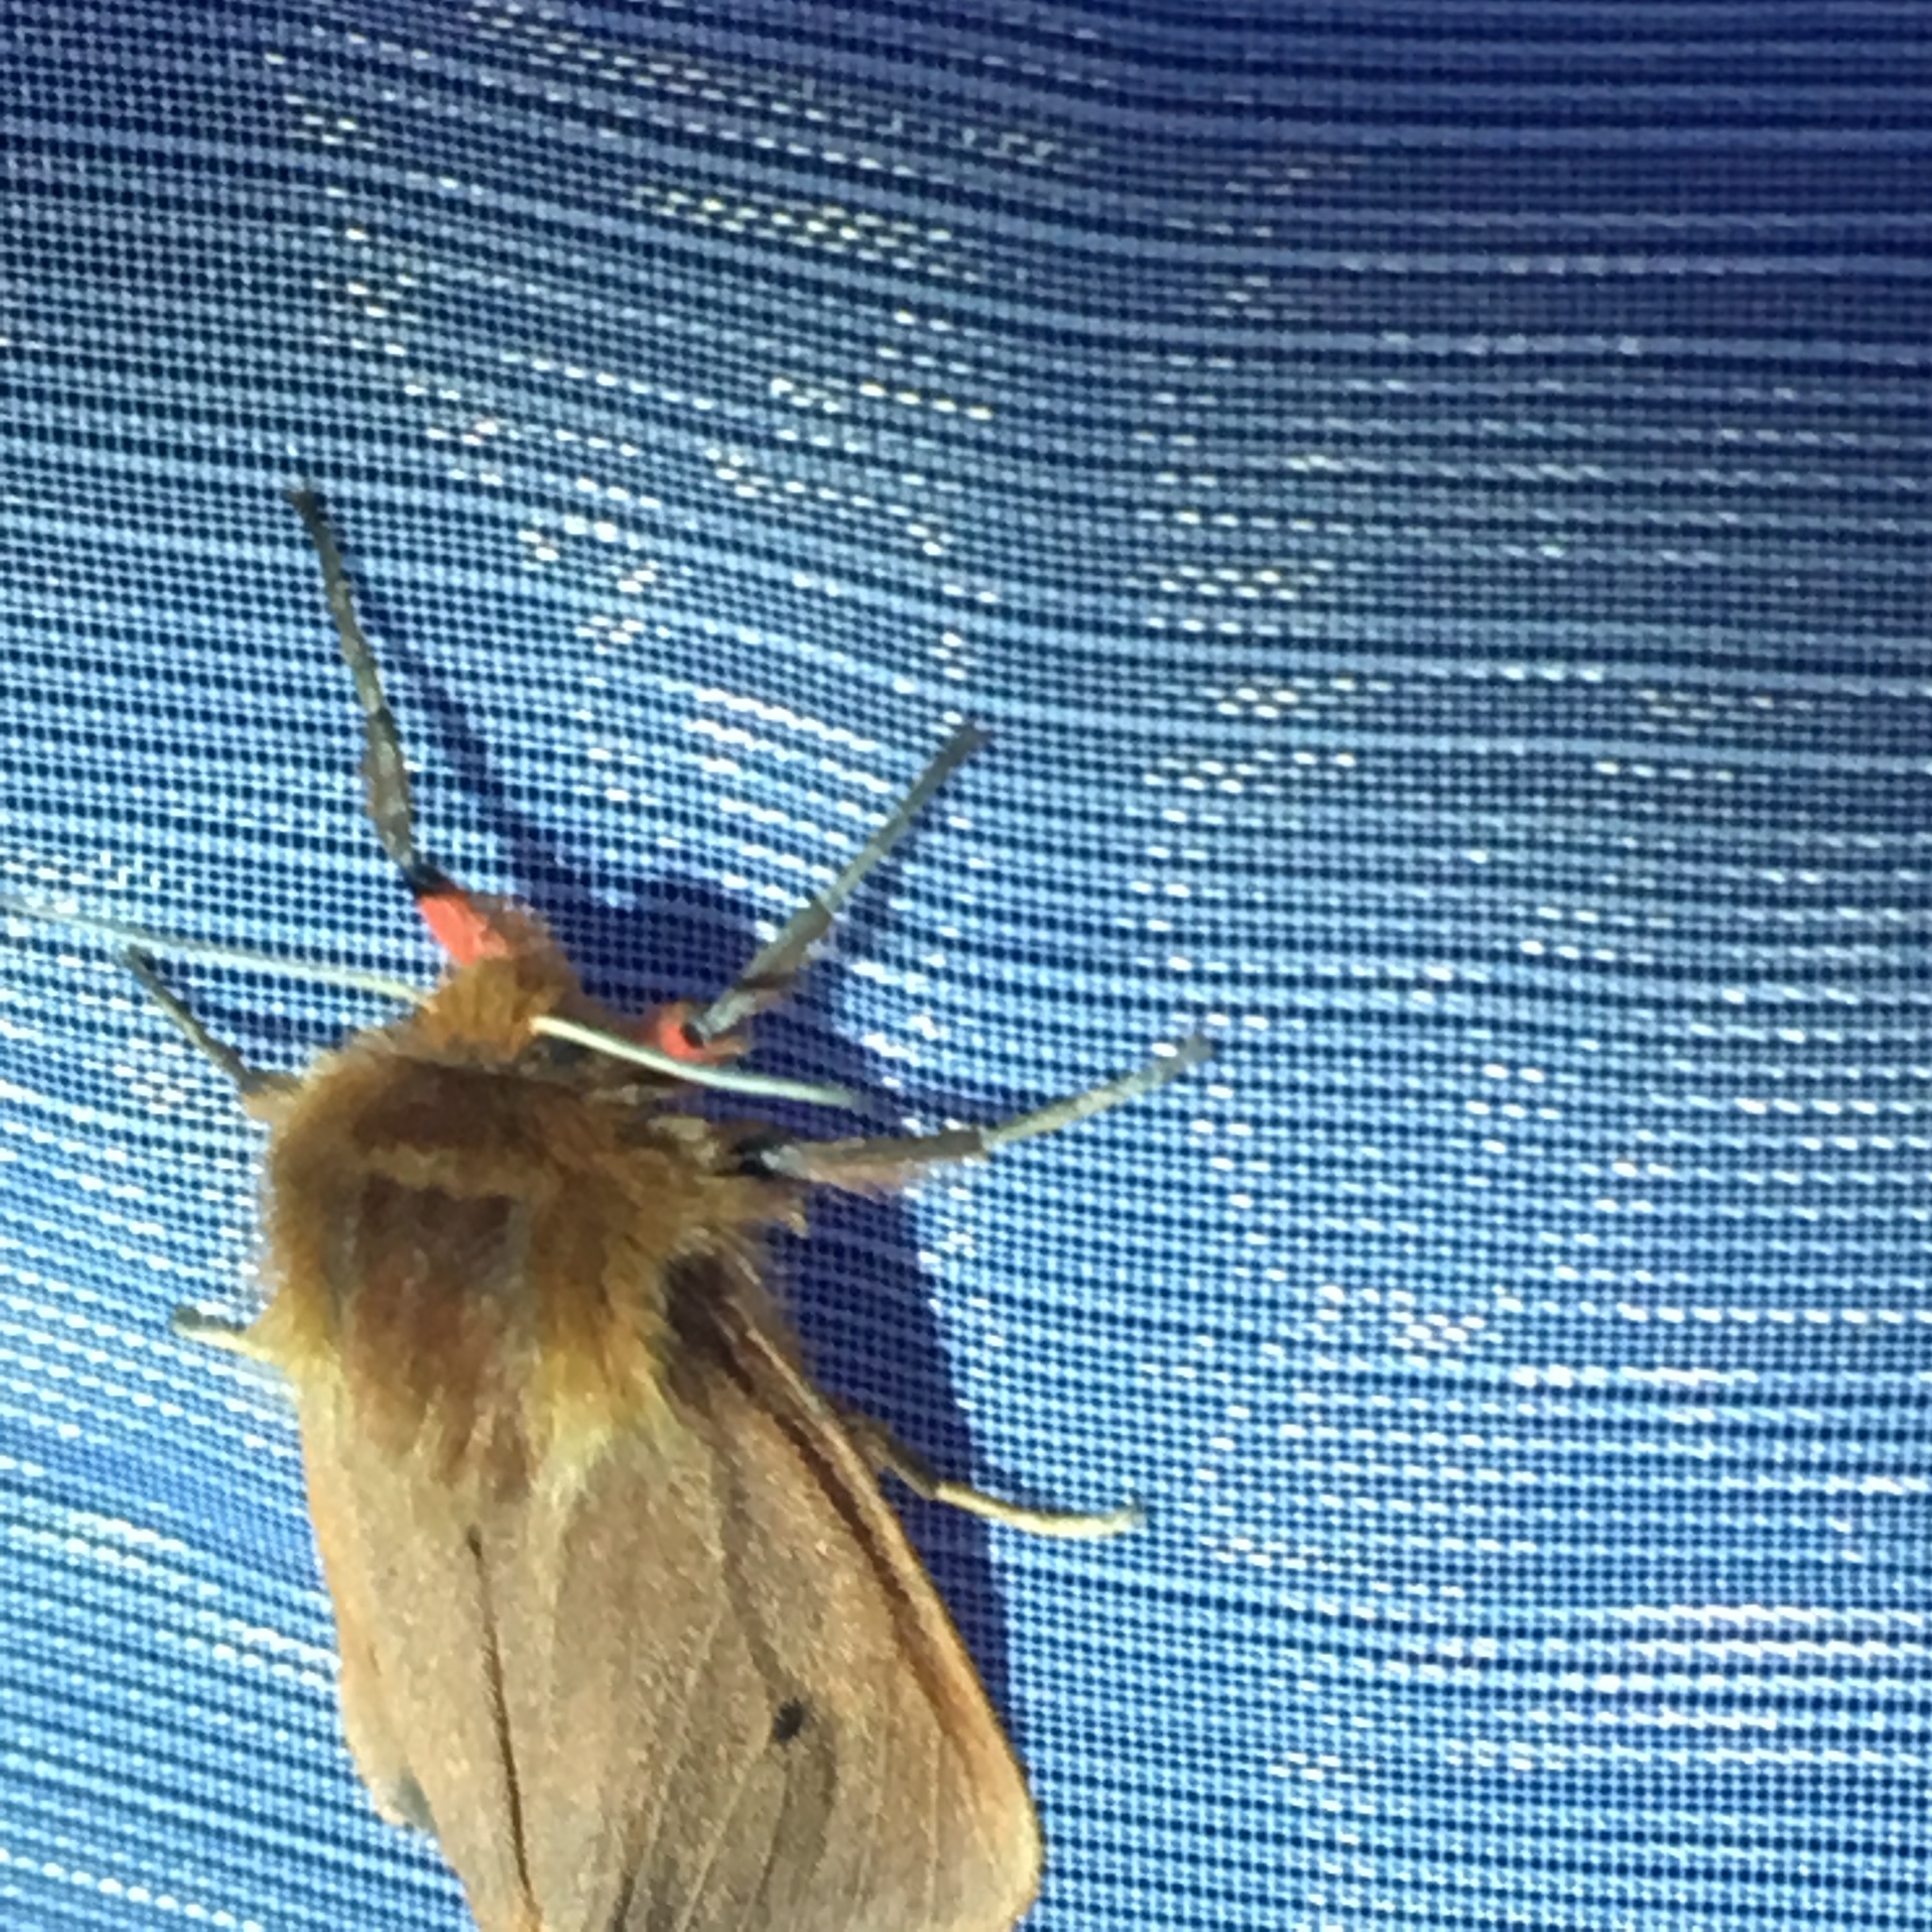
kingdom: Animalia
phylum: Arthropoda
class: Insecta
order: Lepidoptera
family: Erebidae
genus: Phragmatobia
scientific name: Phragmatobia fuliginosa
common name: Ruby tiger
